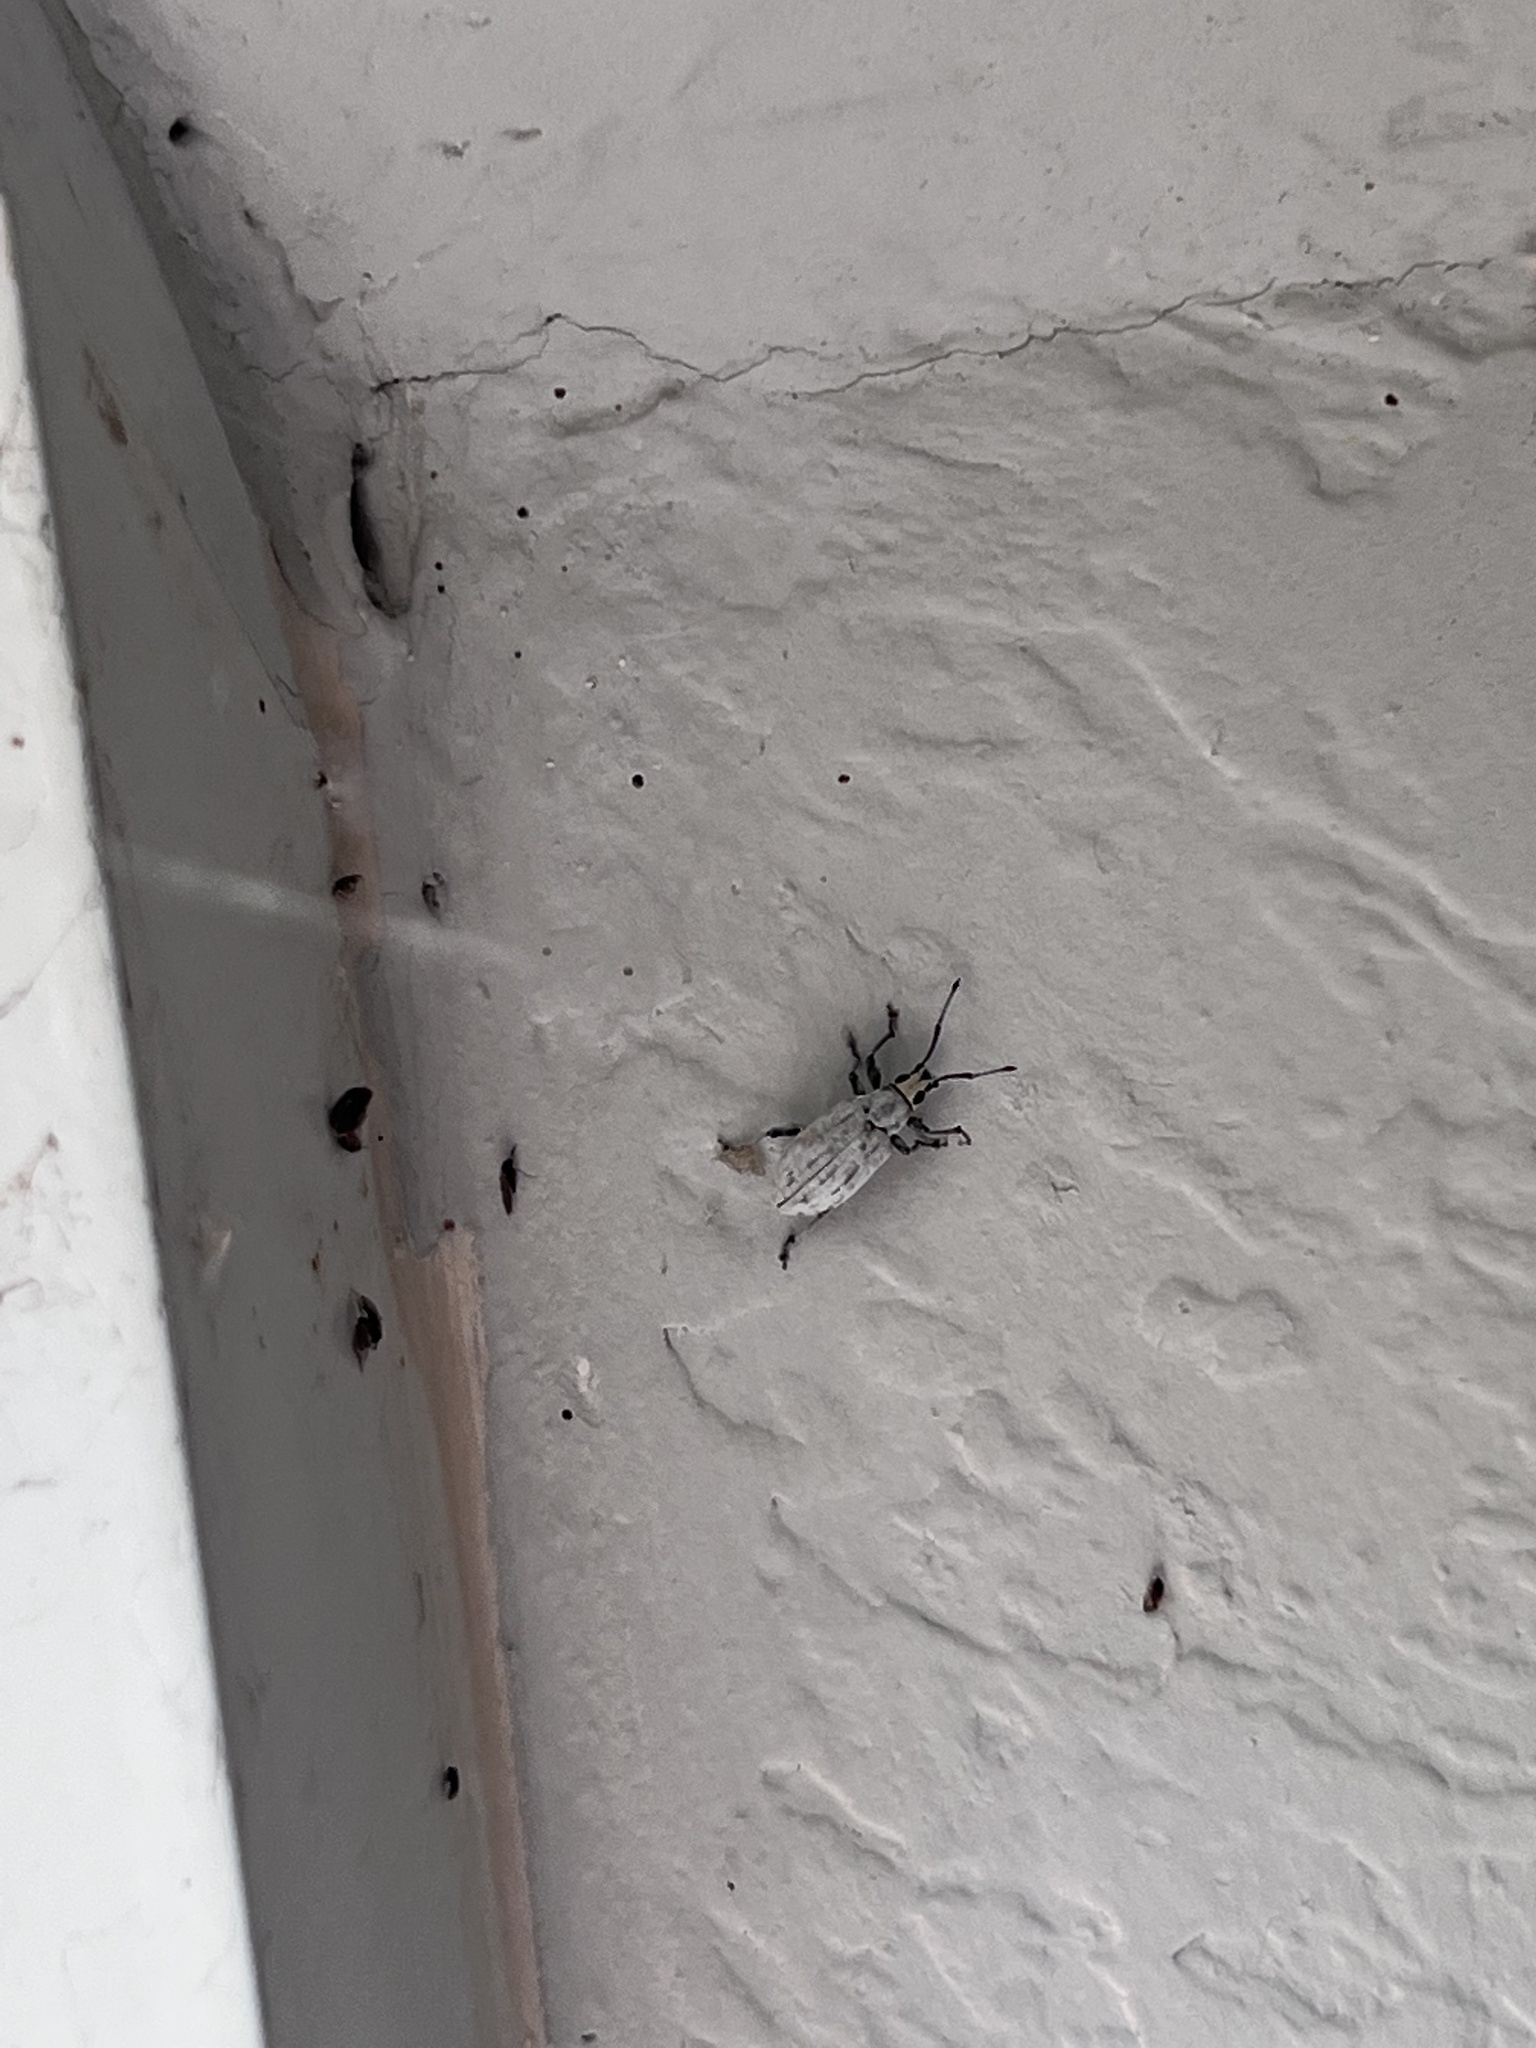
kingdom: Animalia
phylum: Arthropoda
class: Insecta
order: Coleoptera
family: Curculionidae
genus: Myllocerus
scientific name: Myllocerus undecimpustulatus
